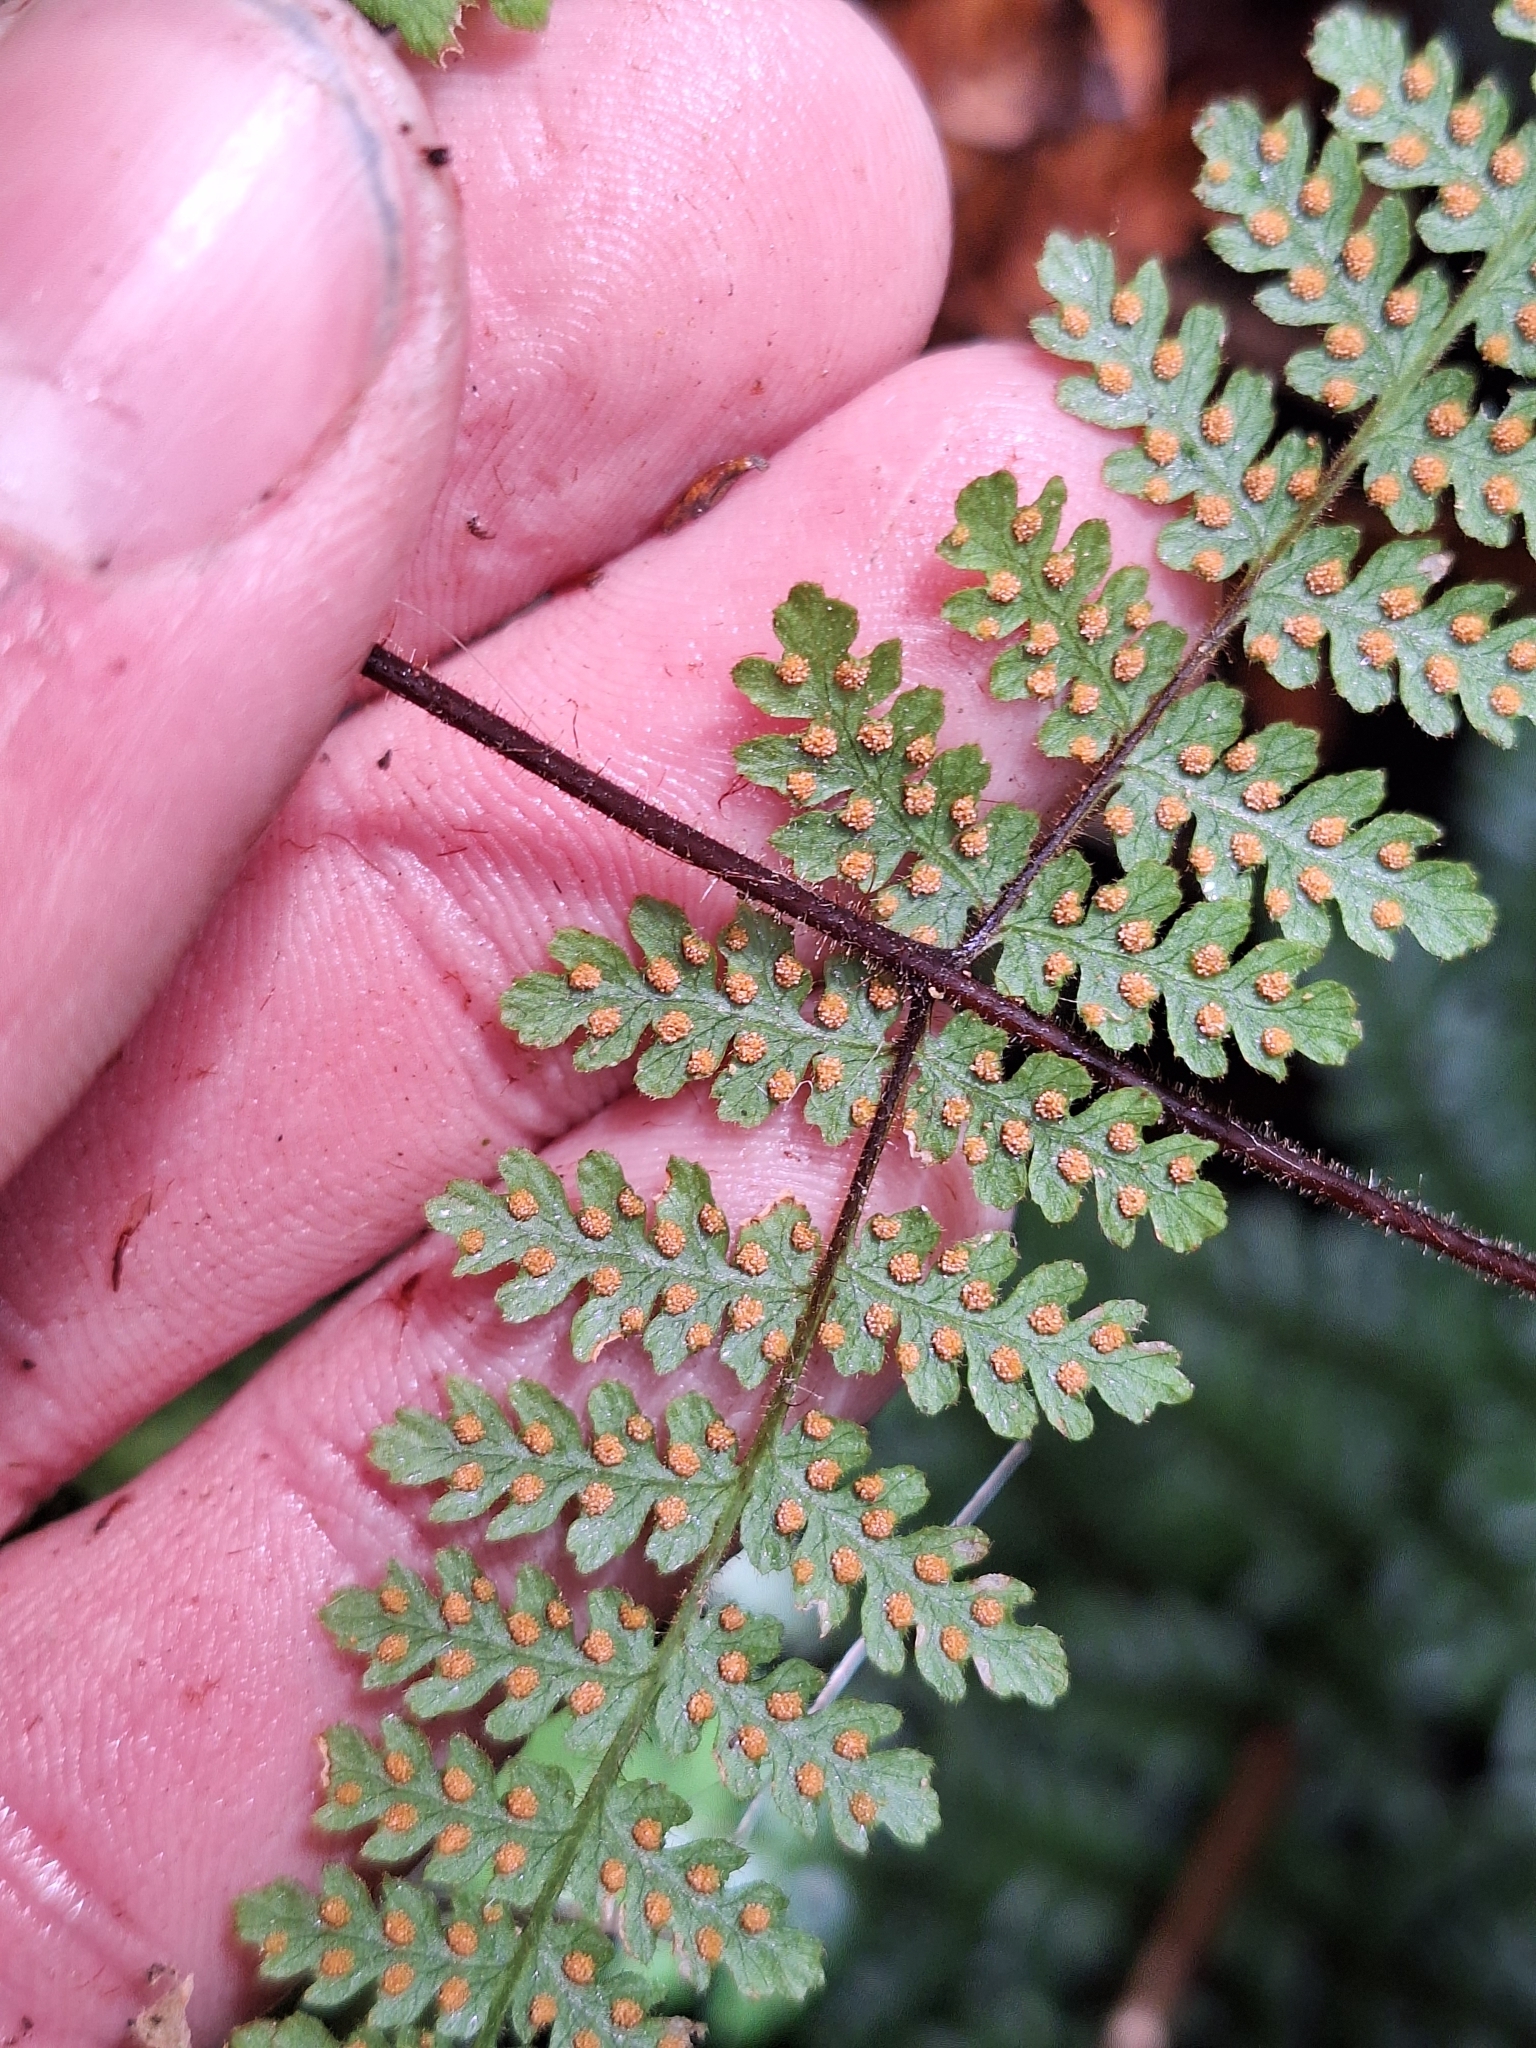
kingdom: Plantae
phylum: Tracheophyta
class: Polypodiopsida
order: Polypodiales
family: Dennstaedtiaceae
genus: Hypolepis
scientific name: Hypolepis rugosula
